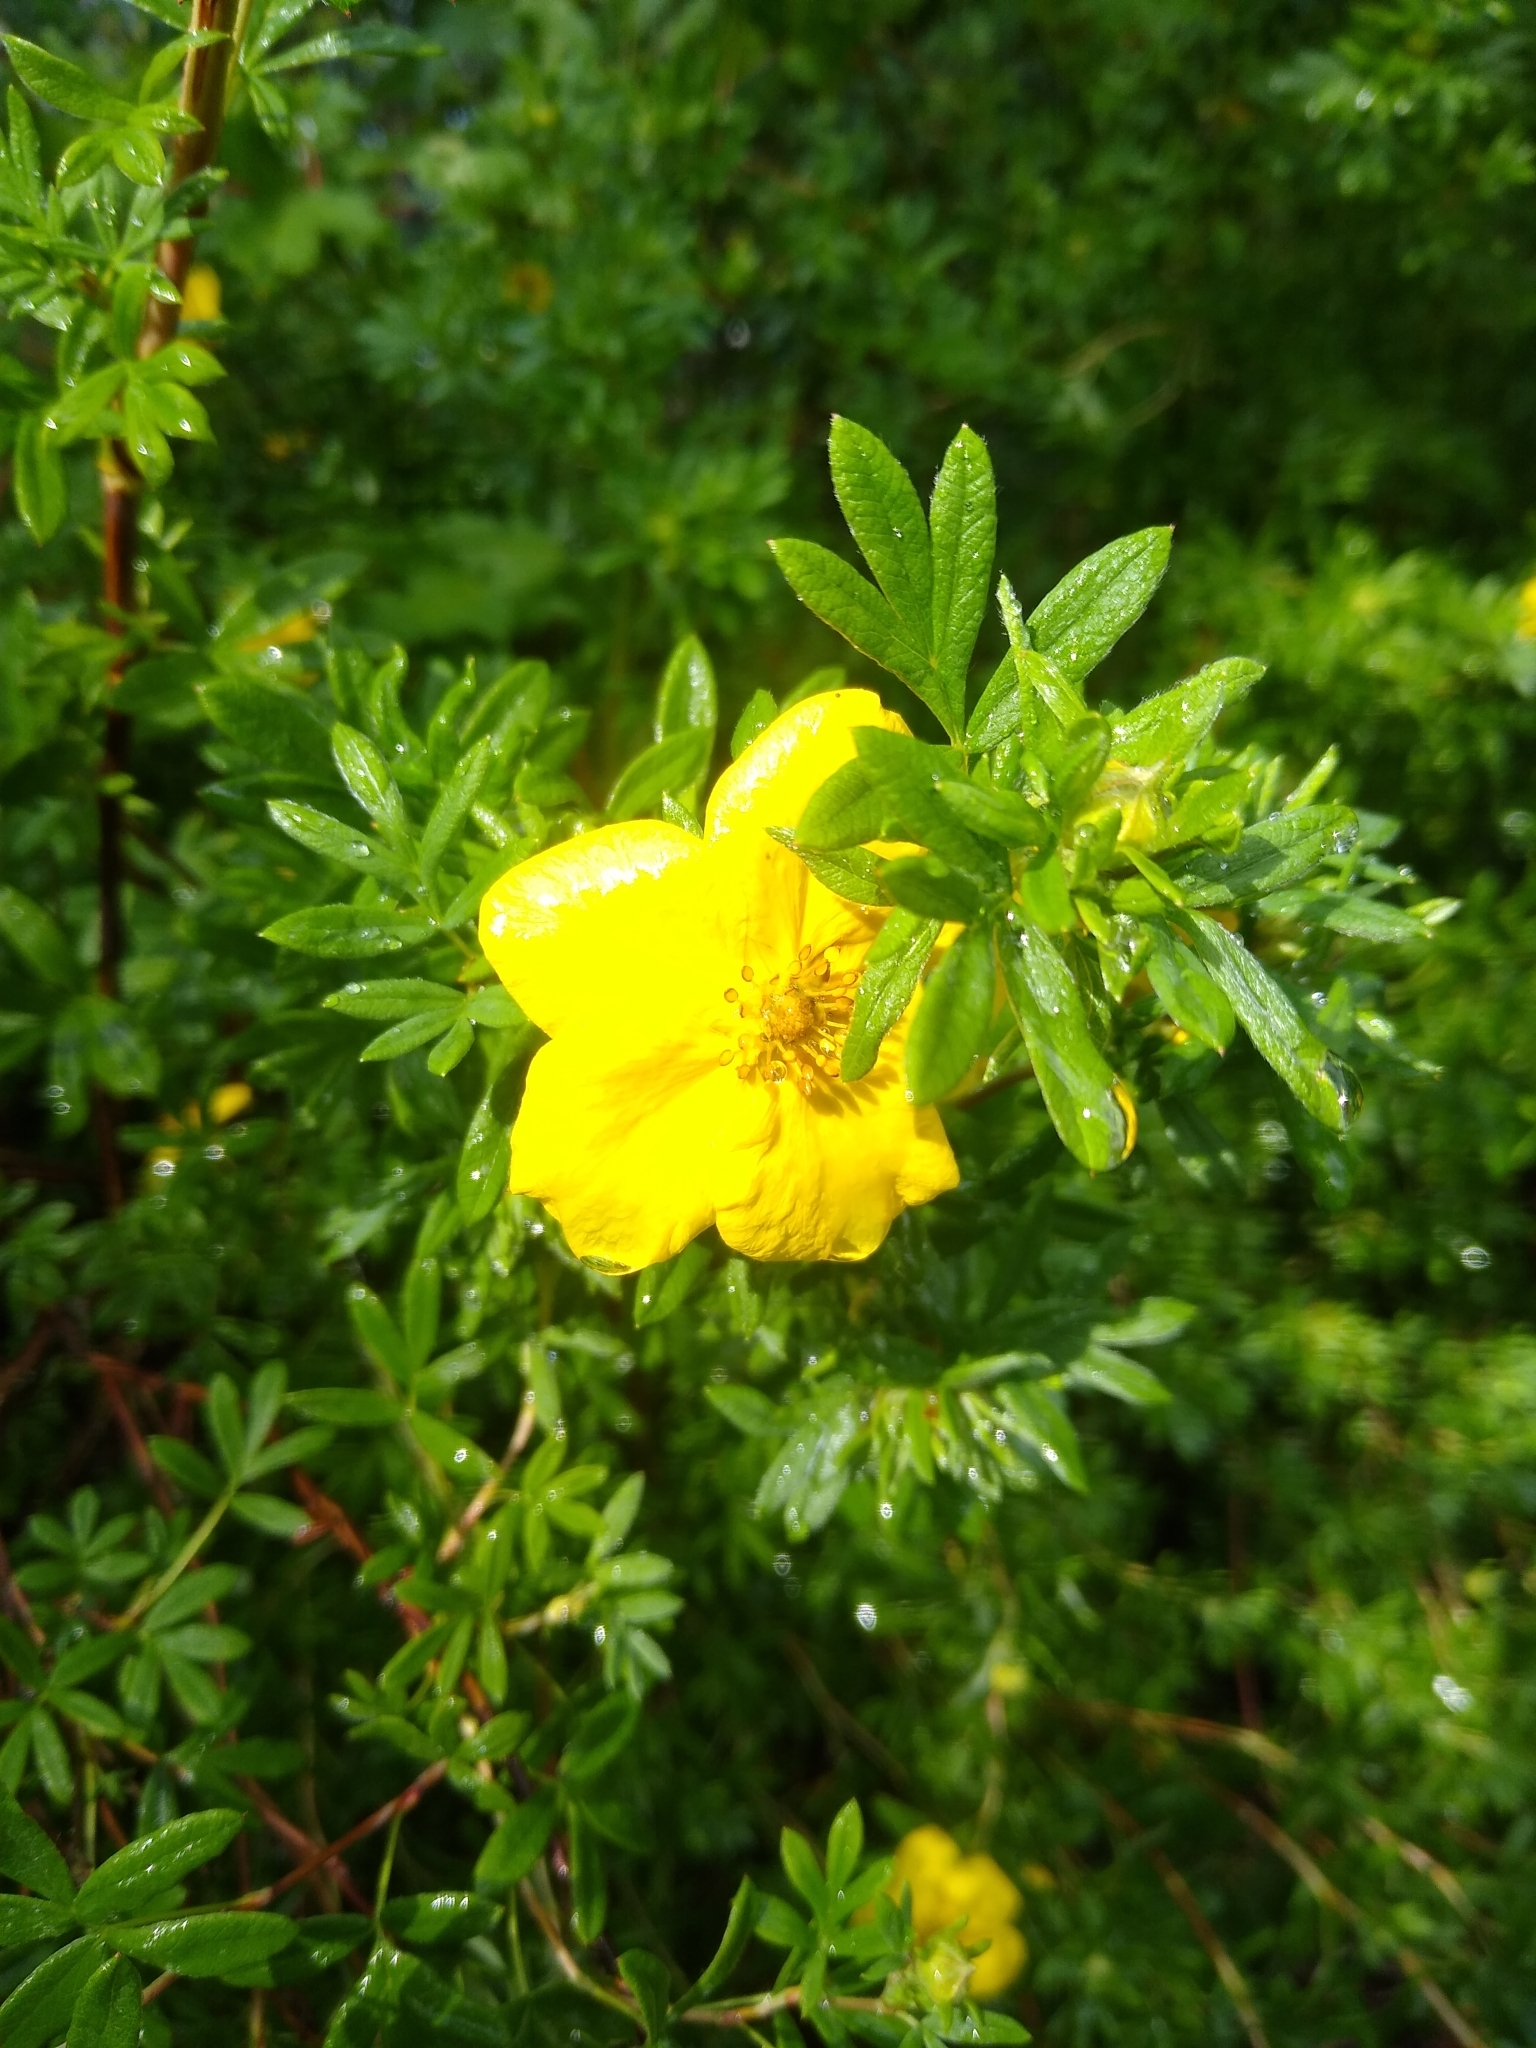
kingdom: Plantae
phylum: Tracheophyta
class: Magnoliopsida
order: Rosales
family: Rosaceae
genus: Dasiphora
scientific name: Dasiphora fruticosa
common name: Shrubby cinquefoil
